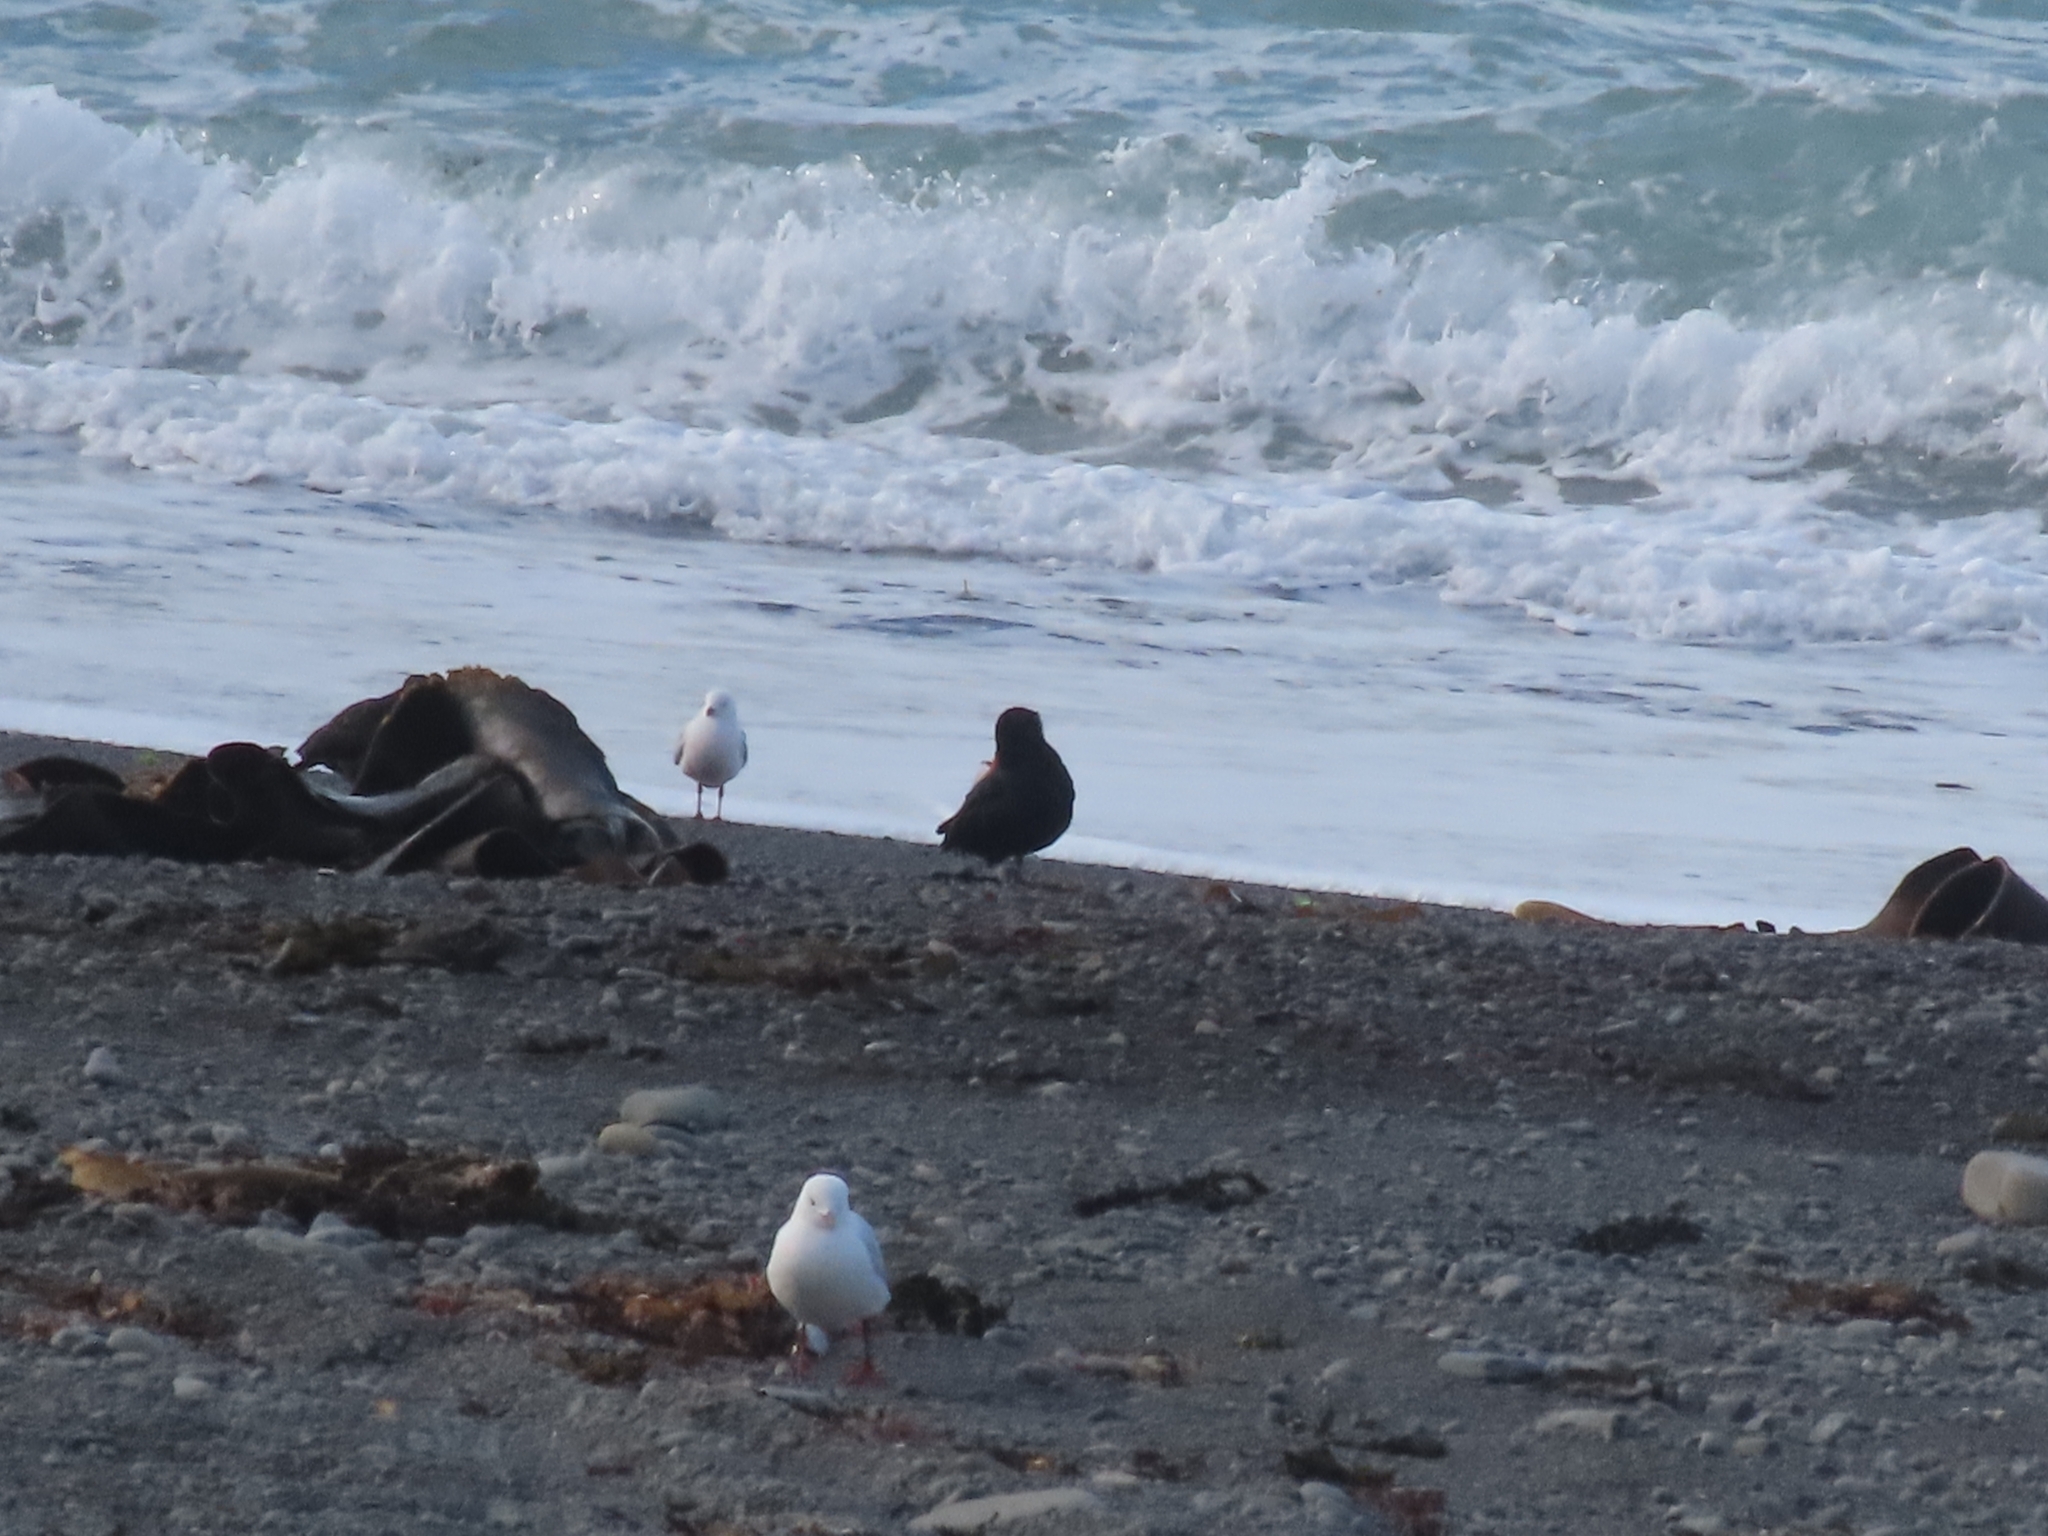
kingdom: Animalia
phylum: Chordata
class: Aves
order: Charadriiformes
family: Haematopodidae
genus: Haematopus
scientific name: Haematopus unicolor
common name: Variable oystercatcher
